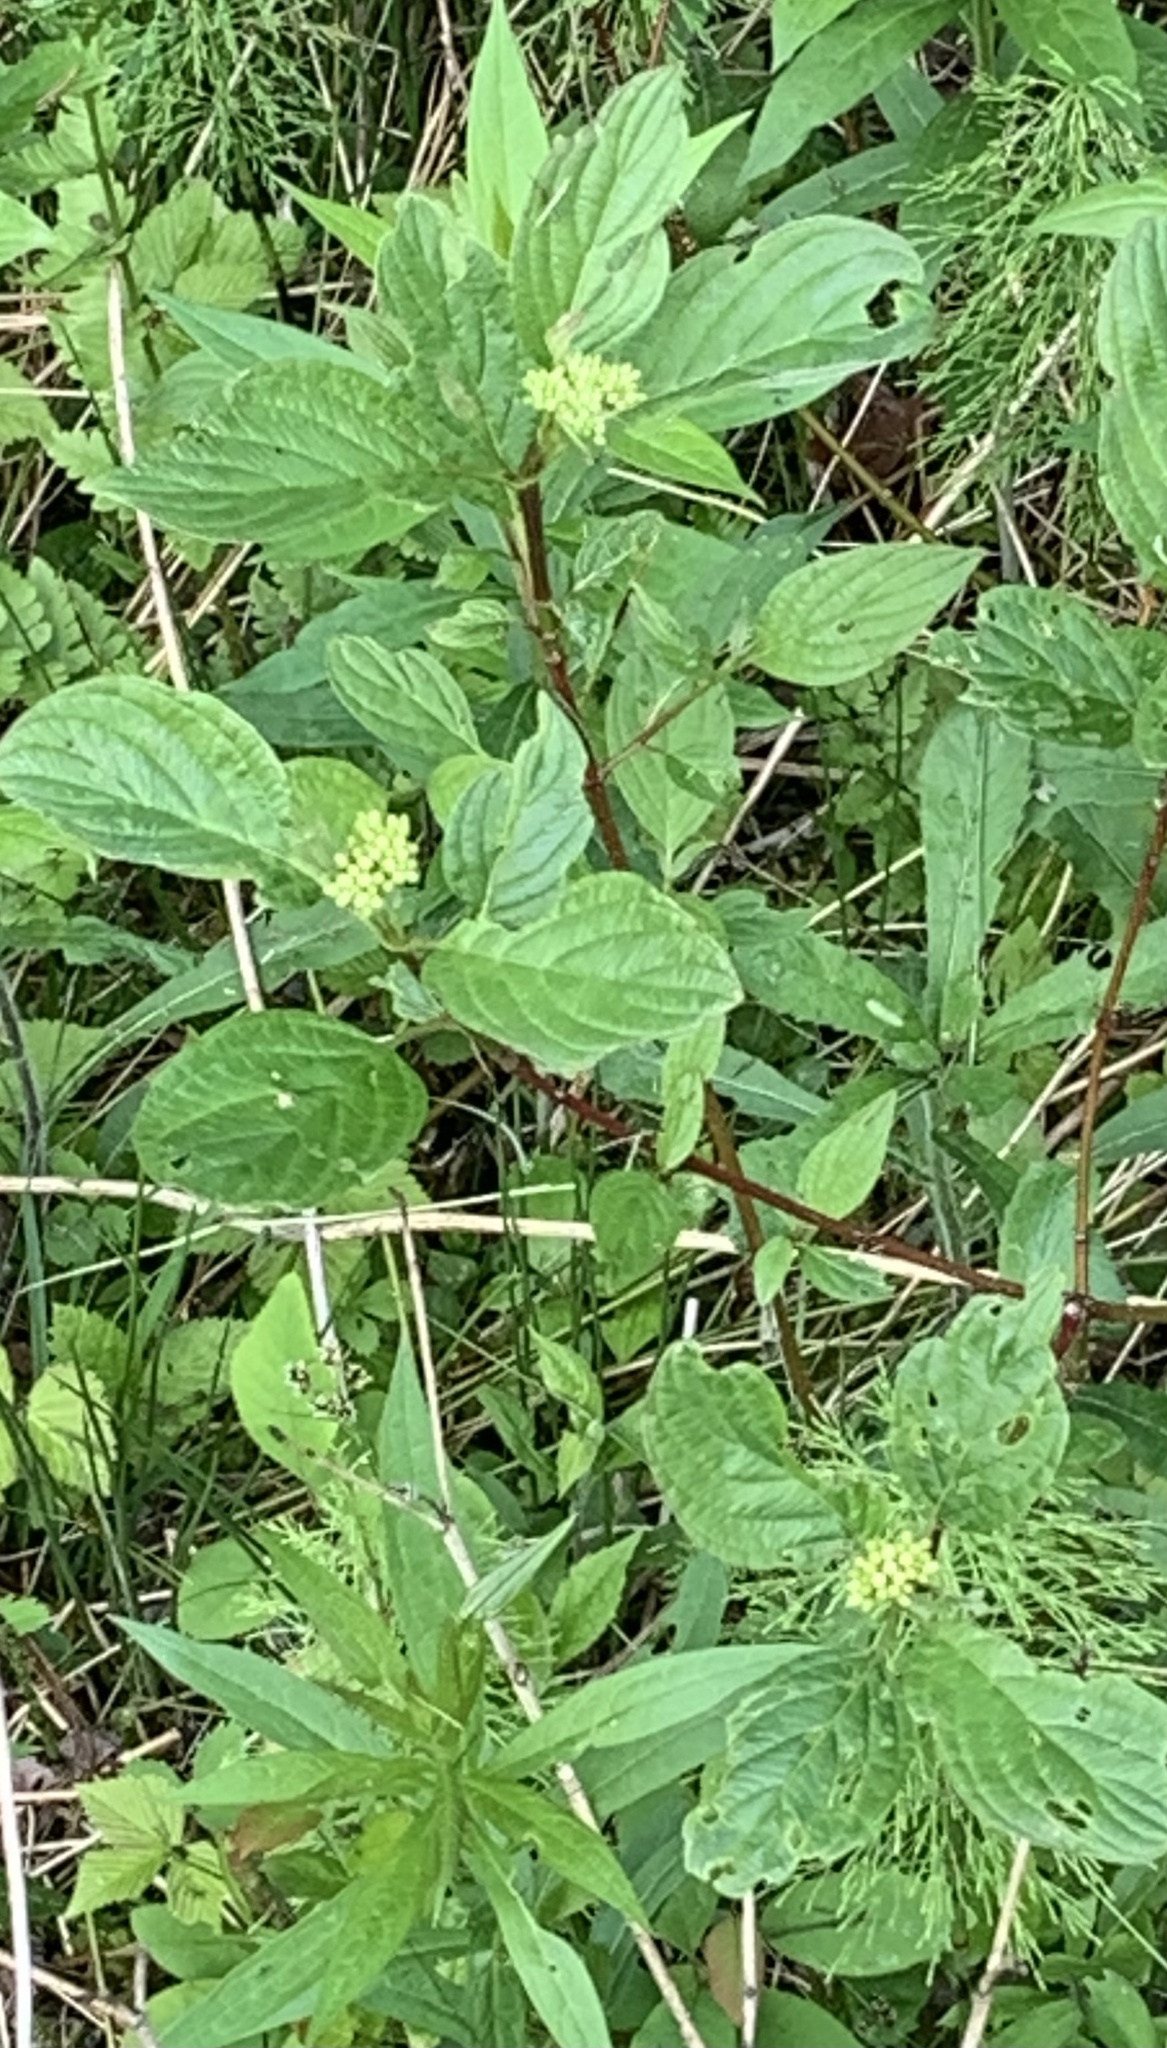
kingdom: Plantae
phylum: Tracheophyta
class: Magnoliopsida
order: Cornales
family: Cornaceae
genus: Cornus
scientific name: Cornus sericea
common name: Red-osier dogwood
